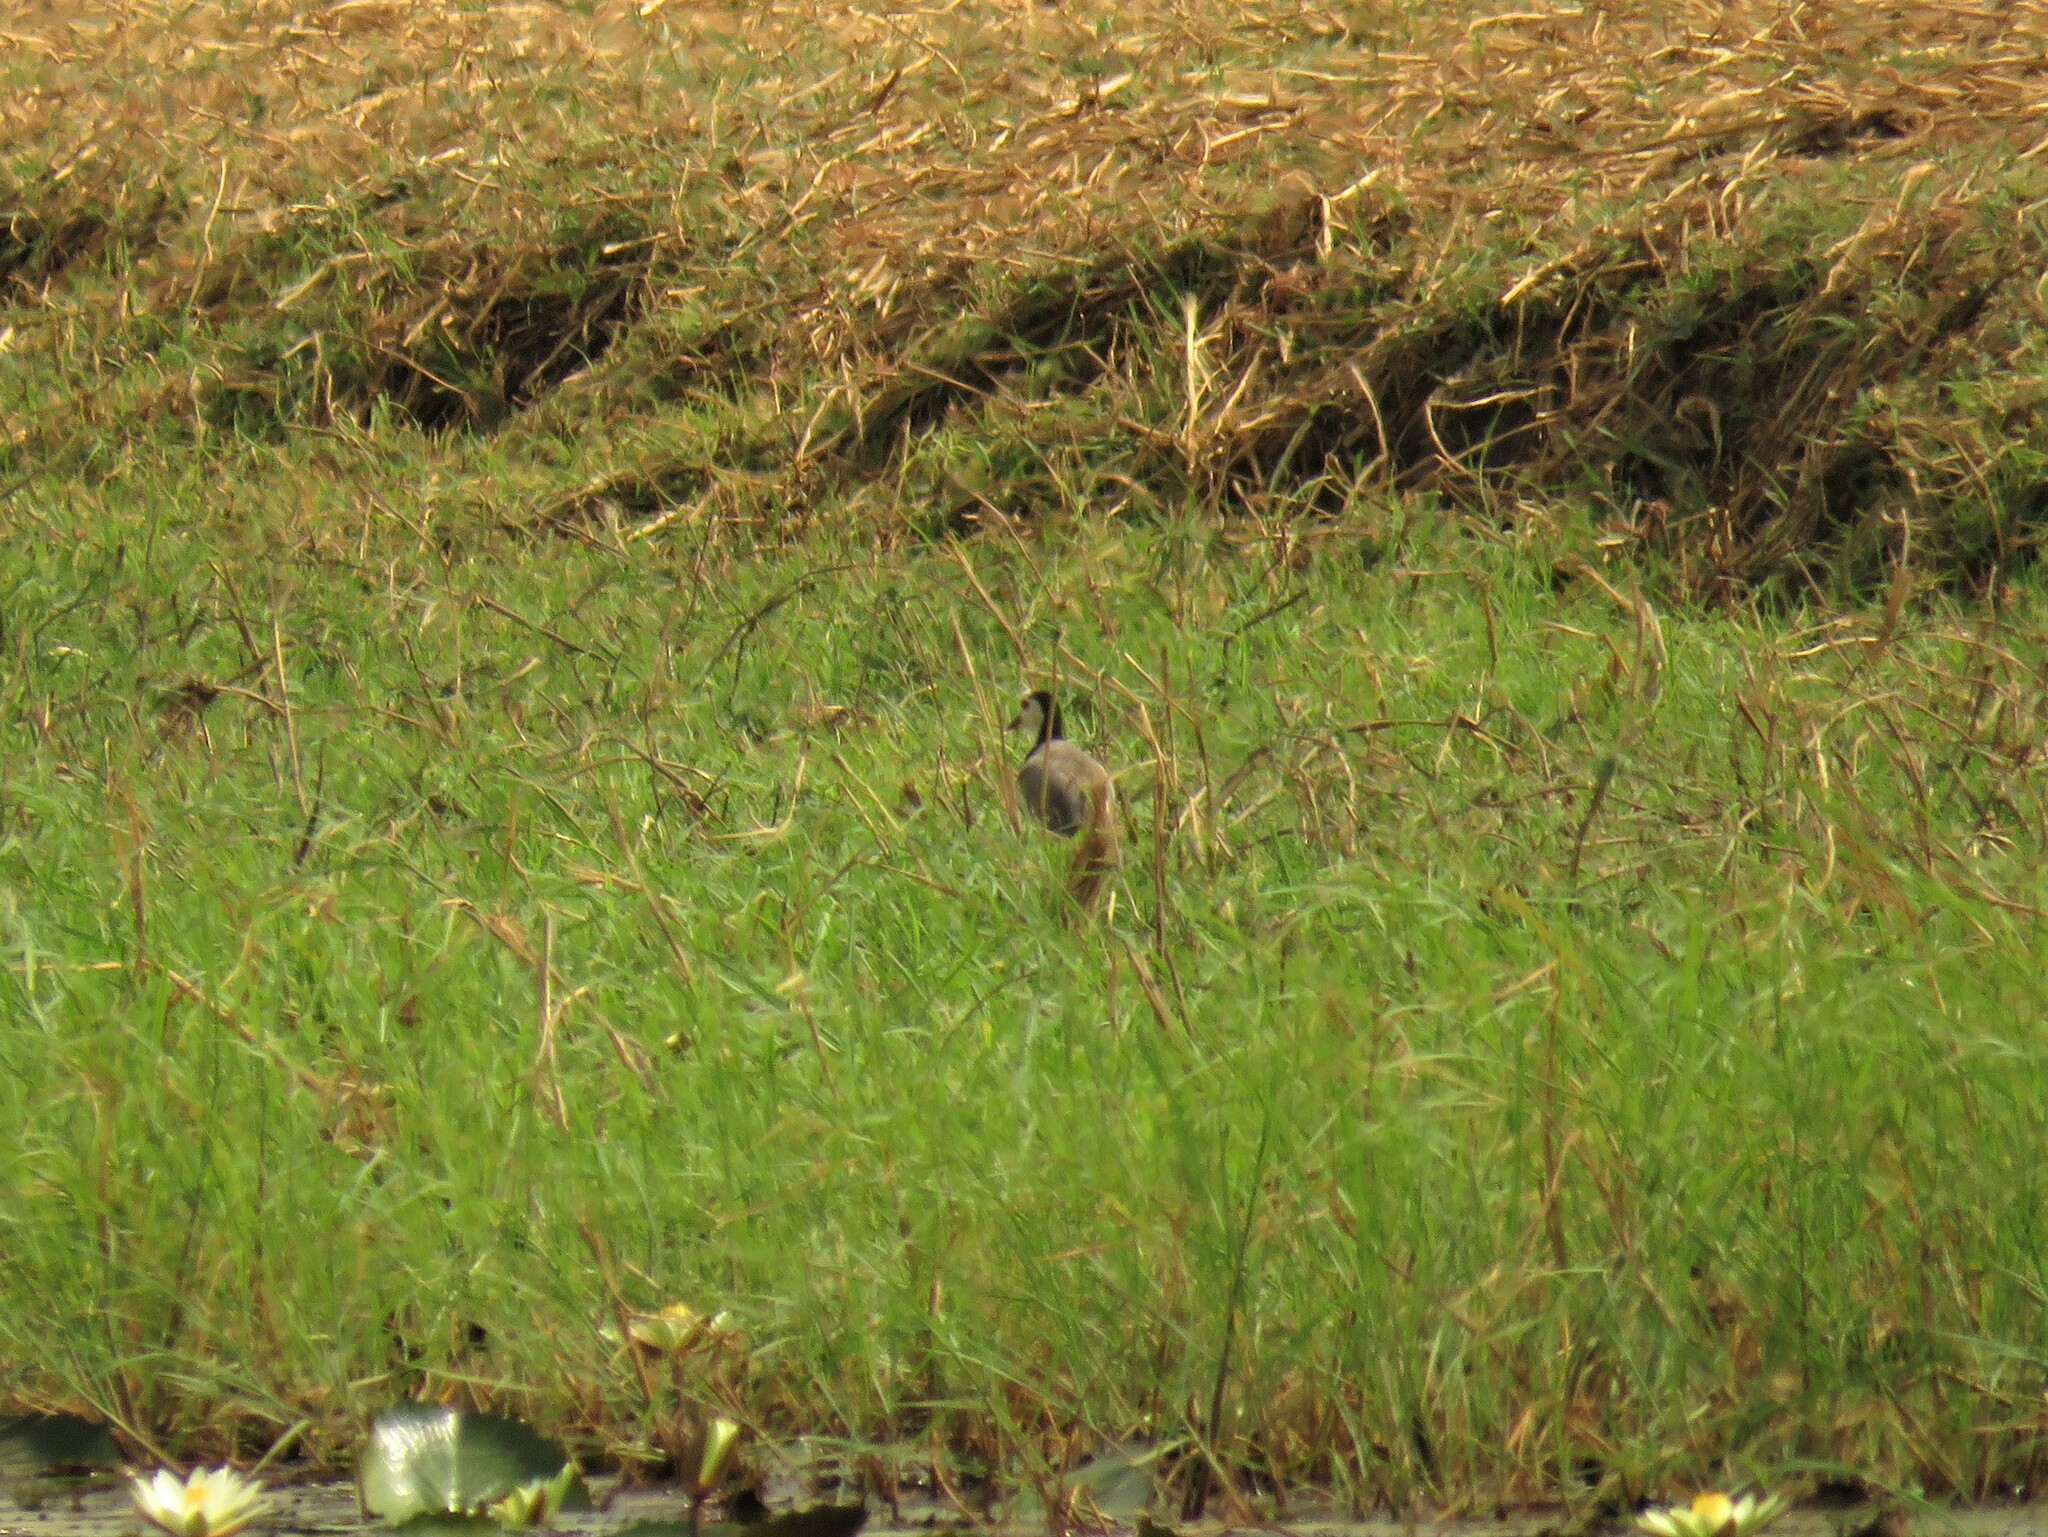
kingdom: Animalia
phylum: Chordata
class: Aves
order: Charadriiformes
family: Charadriidae
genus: Vanellus
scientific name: Vanellus crassirostris
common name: Long-toed lapwing
